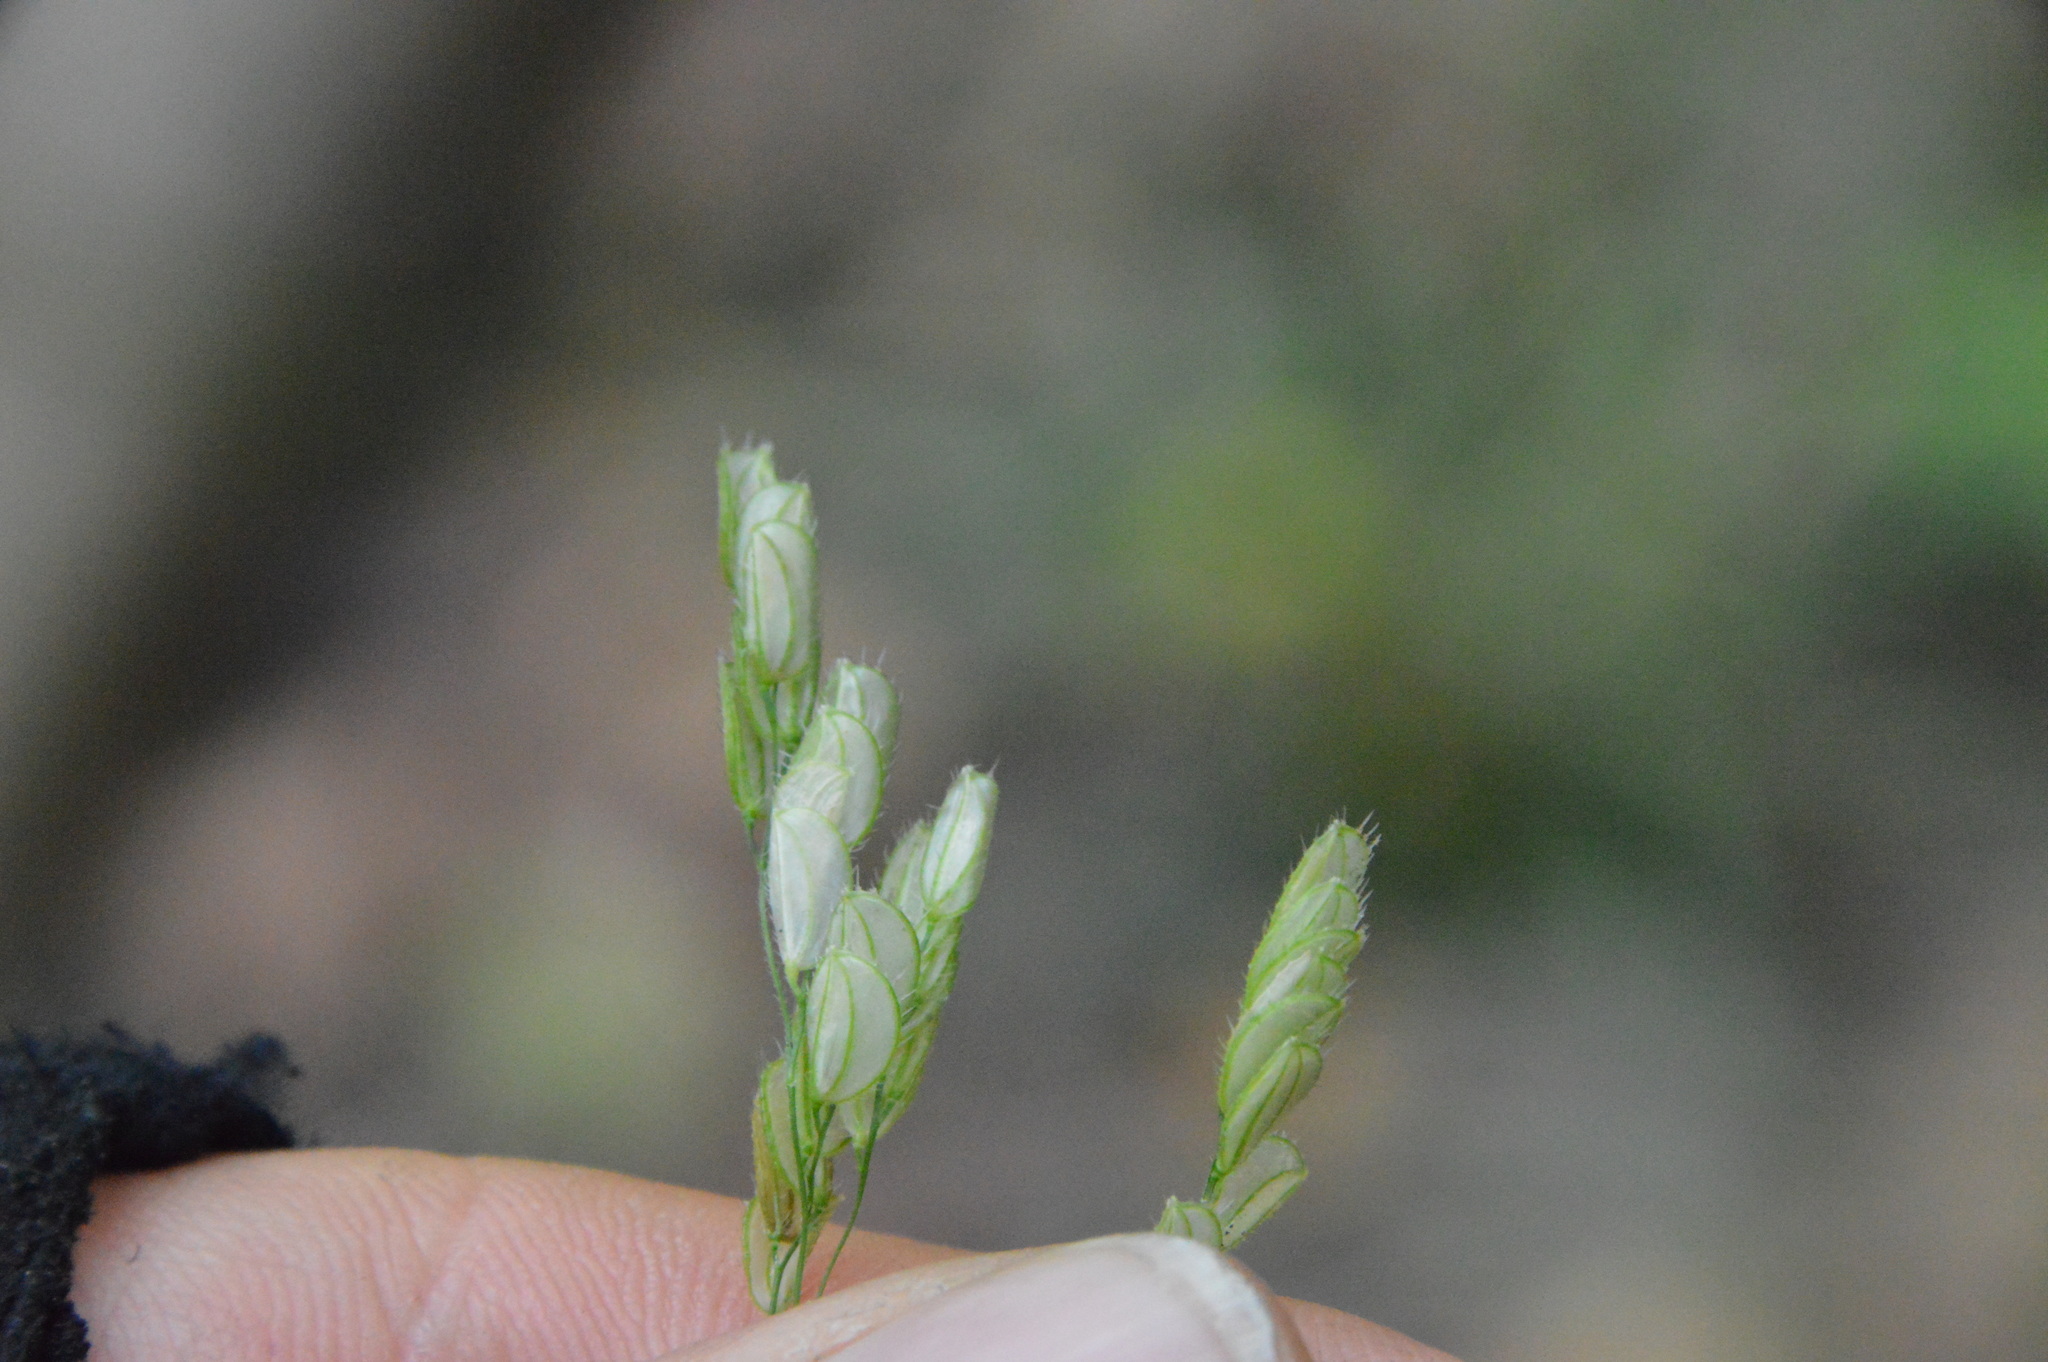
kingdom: Plantae
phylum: Tracheophyta
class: Liliopsida
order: Poales
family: Poaceae
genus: Leersia
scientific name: Leersia lenticularis
